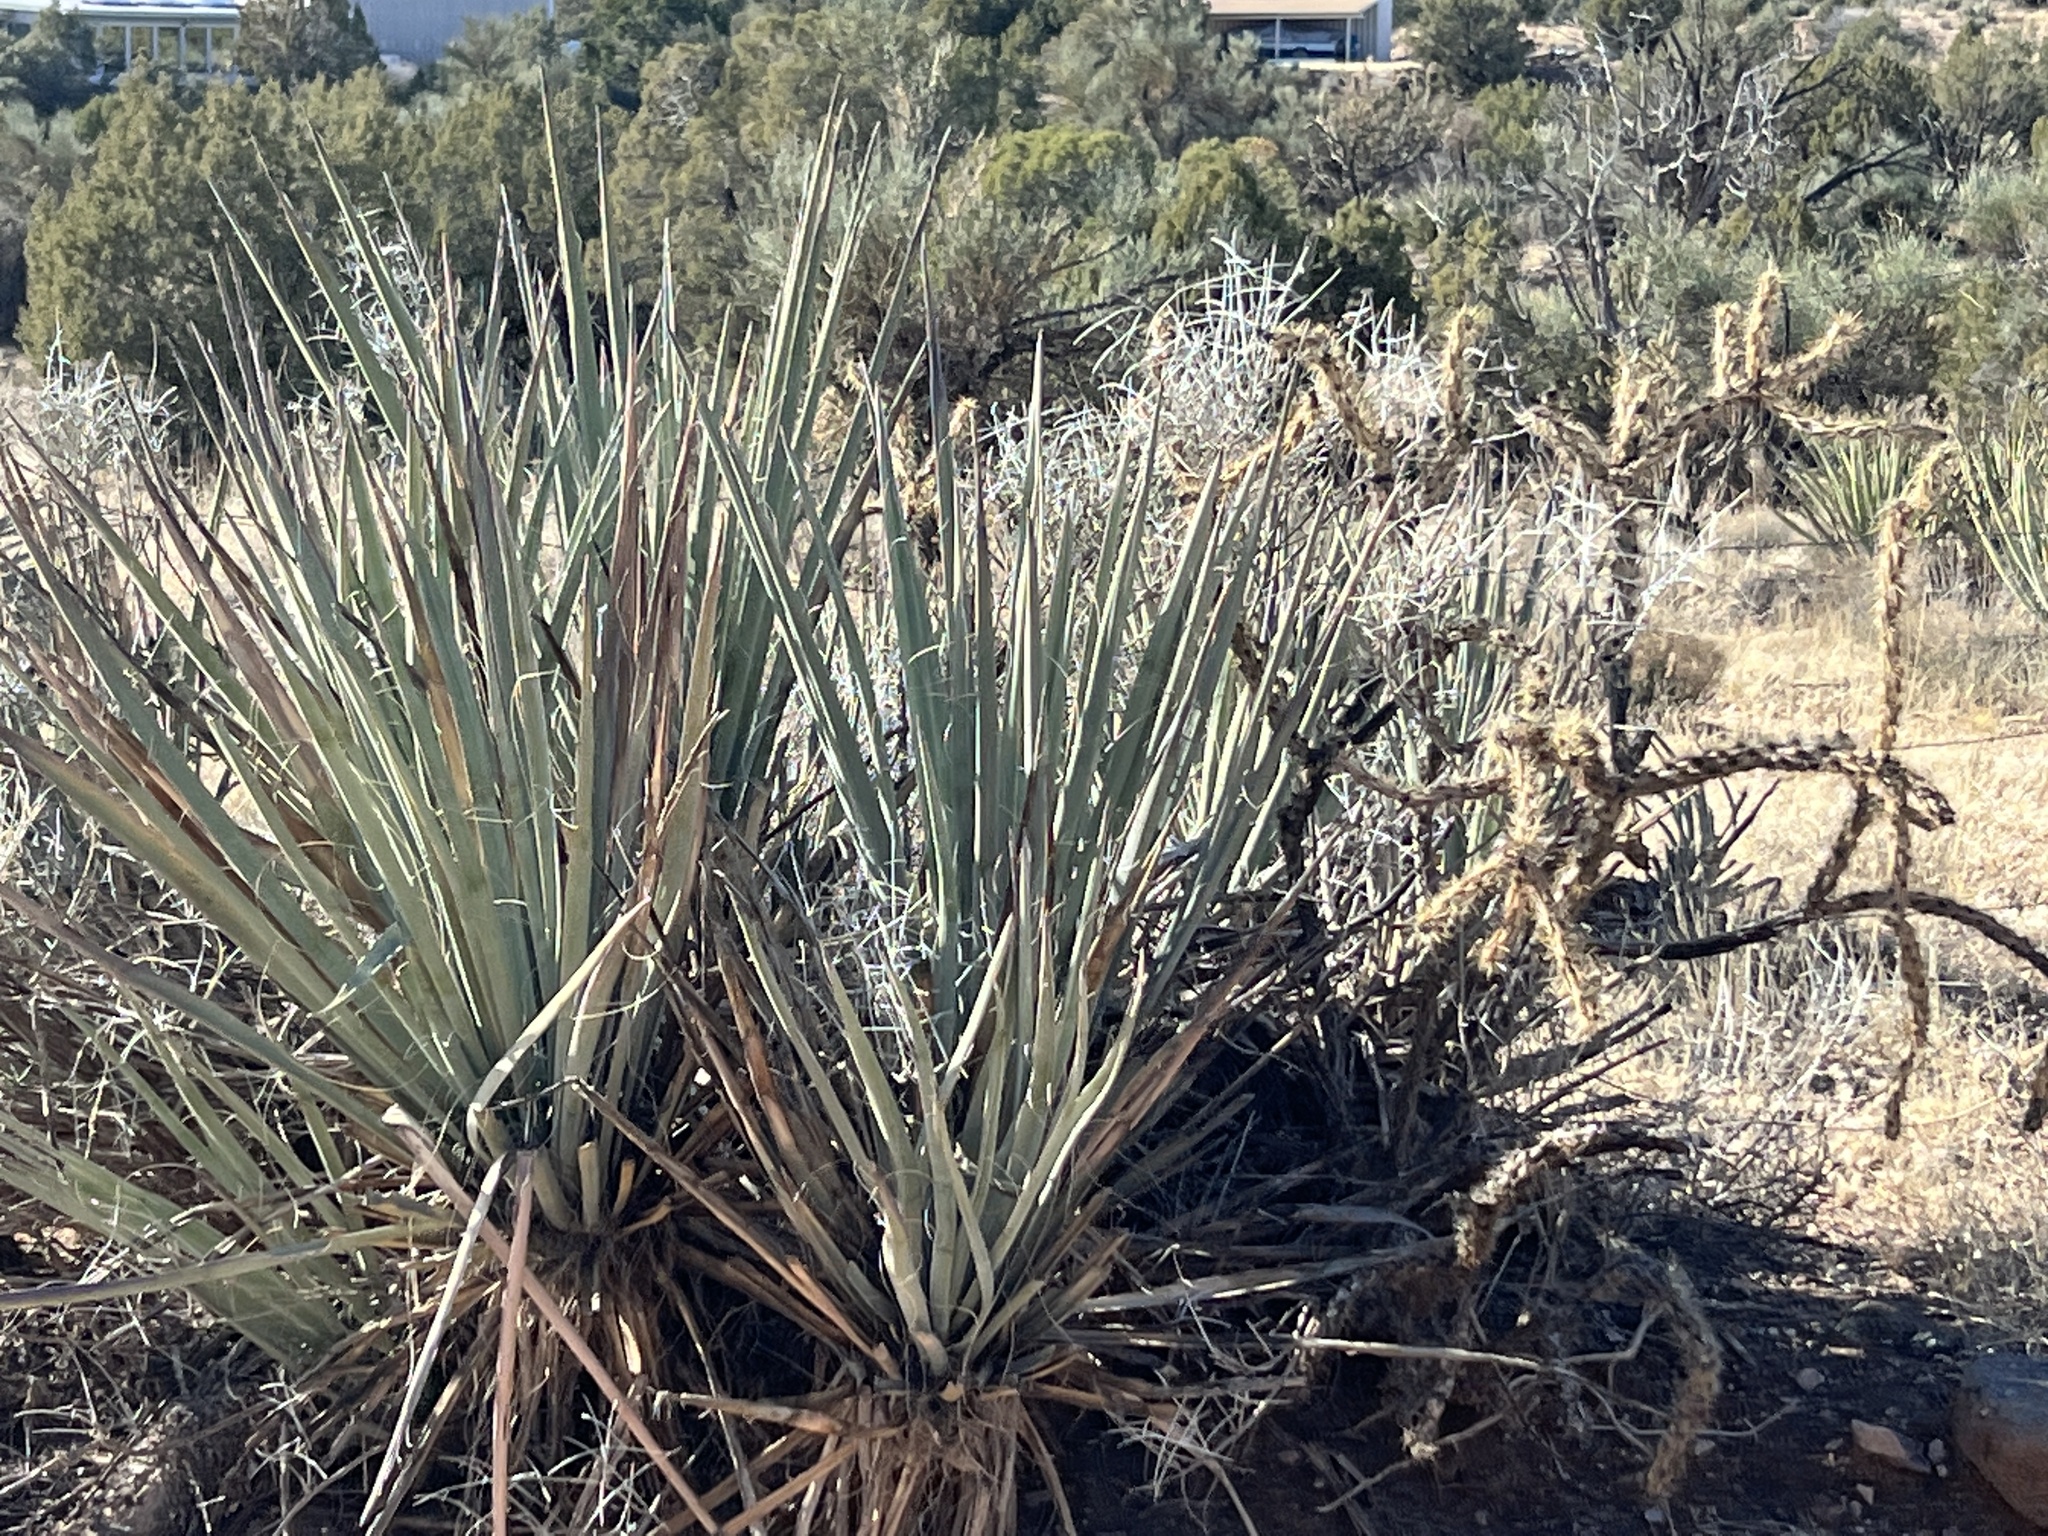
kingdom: Plantae
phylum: Tracheophyta
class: Liliopsida
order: Asparagales
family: Asparagaceae
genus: Yucca
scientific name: Yucca baccata
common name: Banana yucca
